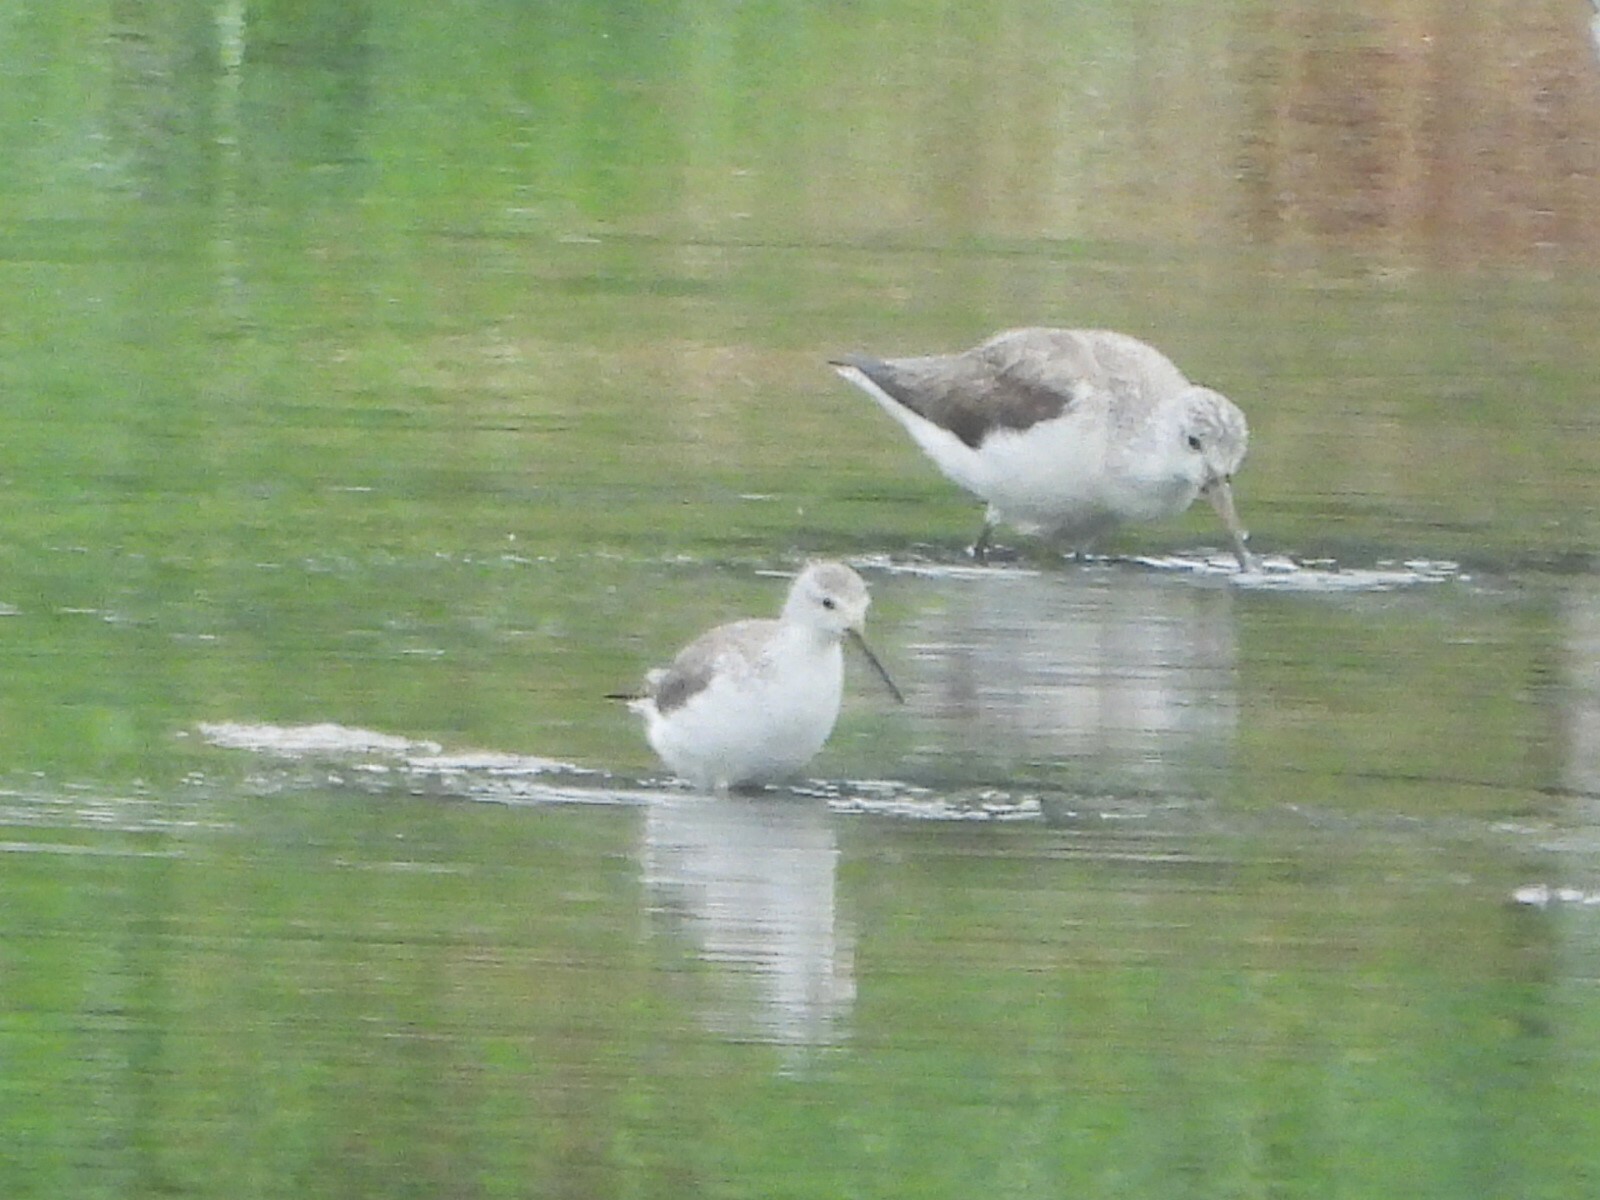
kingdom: Animalia
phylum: Chordata
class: Aves
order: Charadriiformes
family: Scolopacidae
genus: Tringa
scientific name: Tringa stagnatilis
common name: Marsh sandpiper
